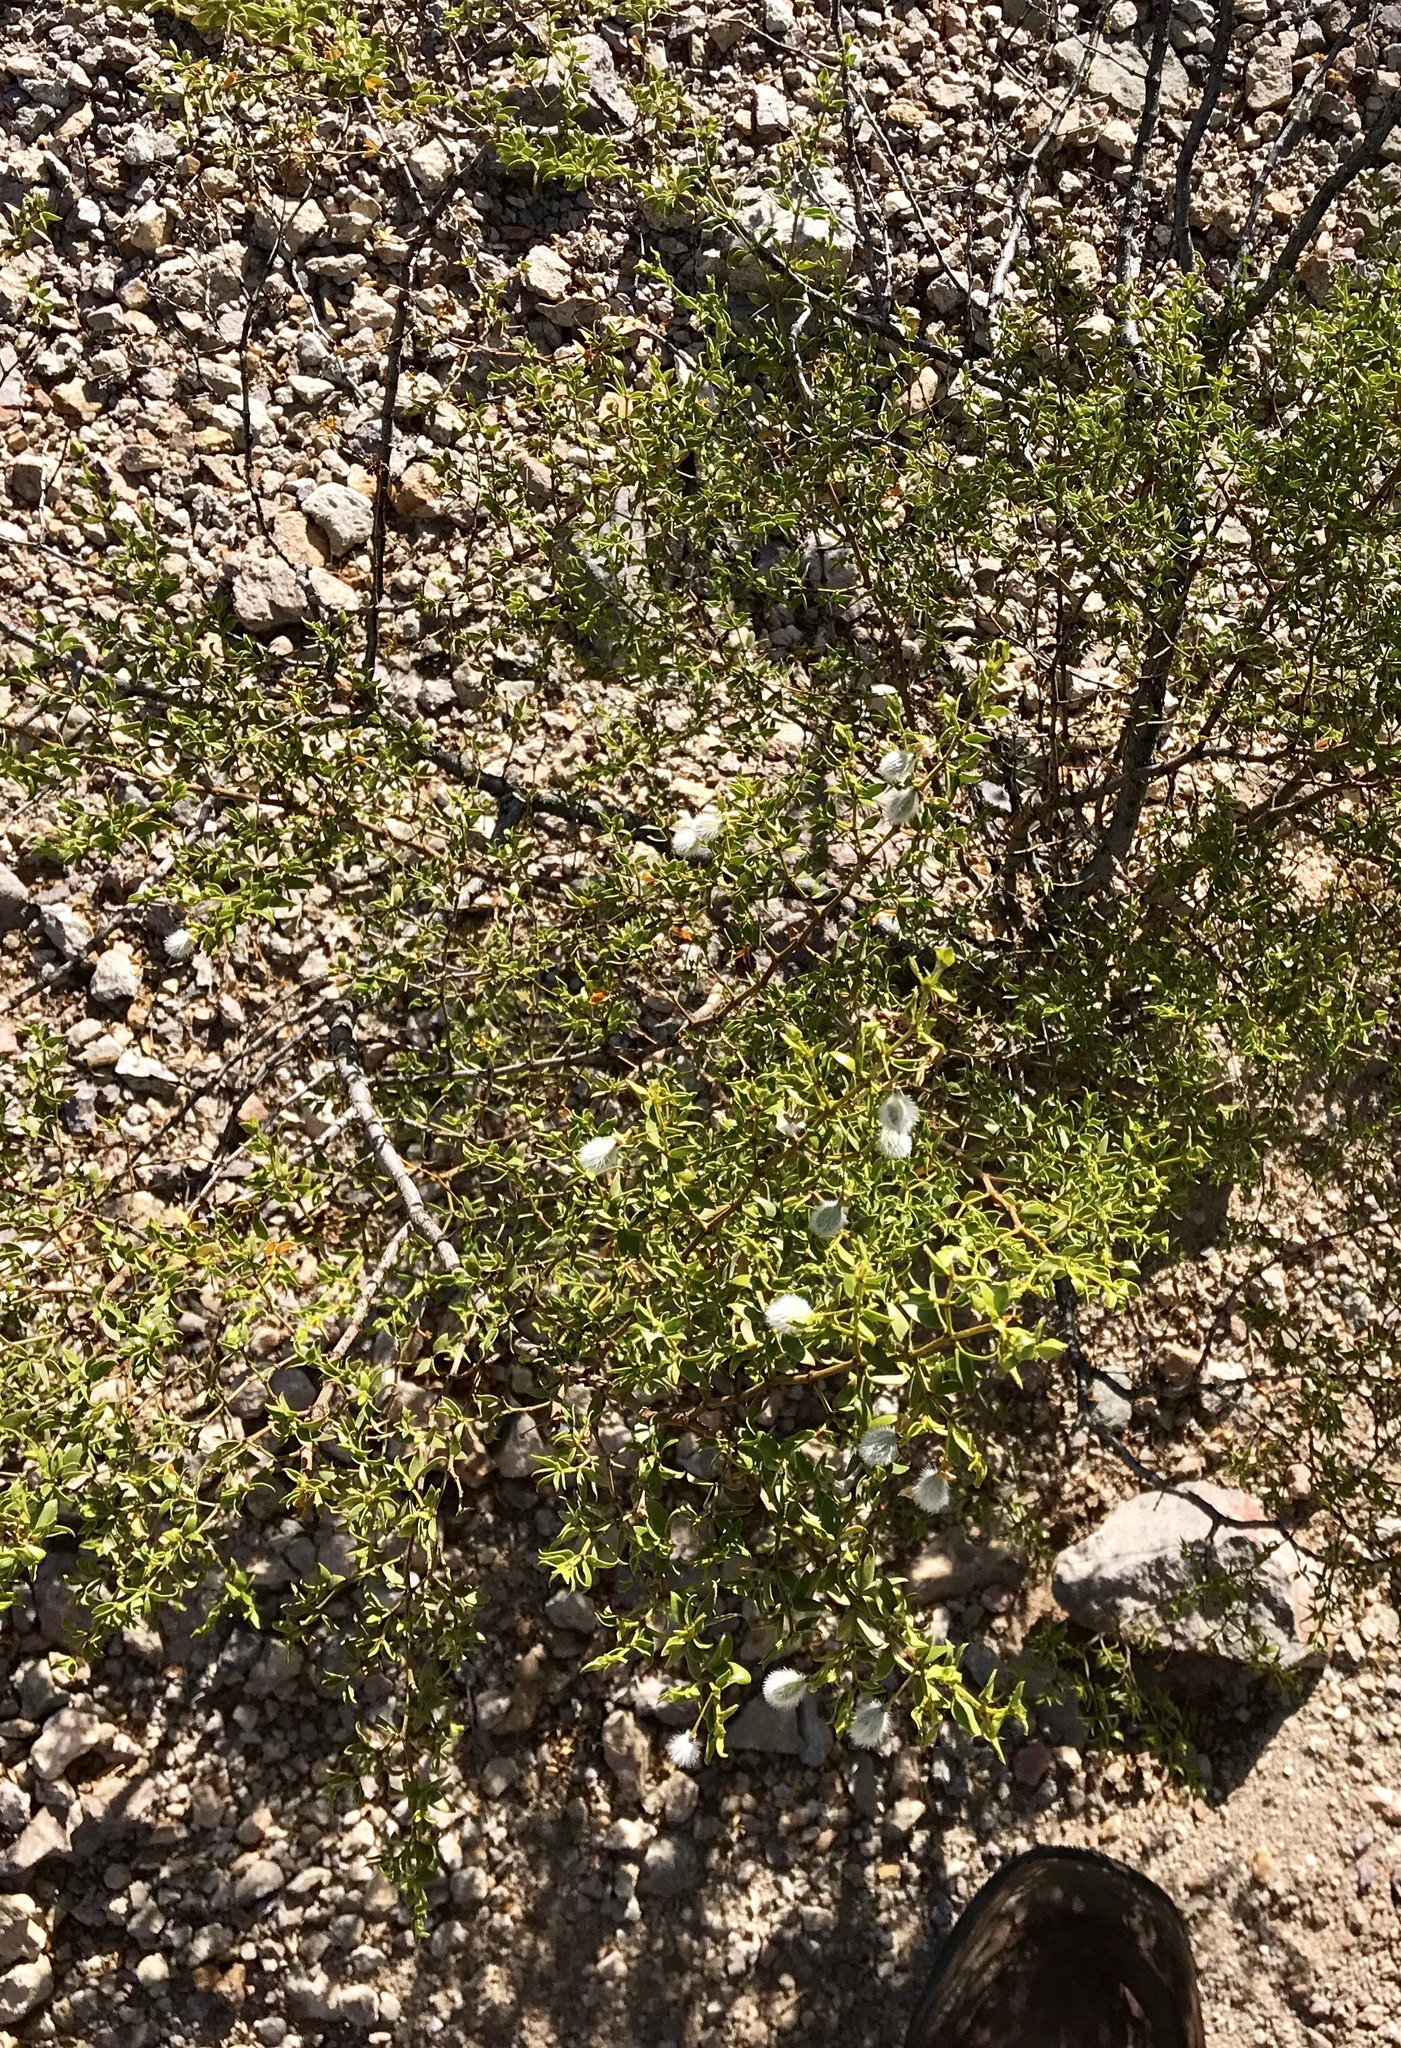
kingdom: Plantae
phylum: Tracheophyta
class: Magnoliopsida
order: Zygophyllales
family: Zygophyllaceae
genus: Larrea
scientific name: Larrea tridentata
